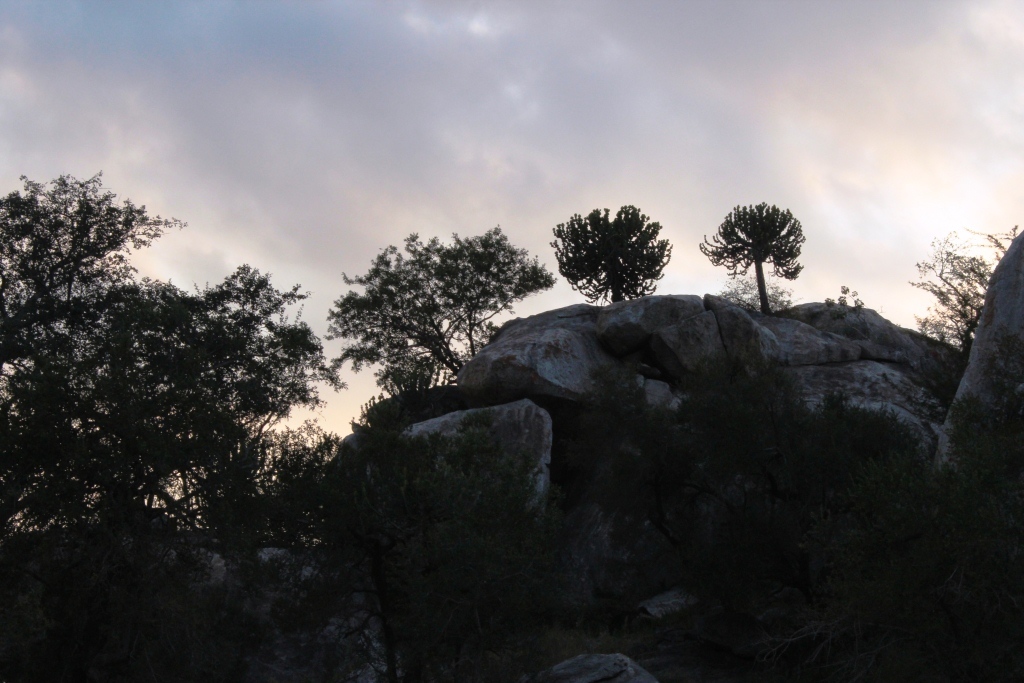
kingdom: Plantae
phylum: Tracheophyta
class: Magnoliopsida
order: Malpighiales
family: Euphorbiaceae
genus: Euphorbia
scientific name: Euphorbia cooperi
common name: Candelabra tree
